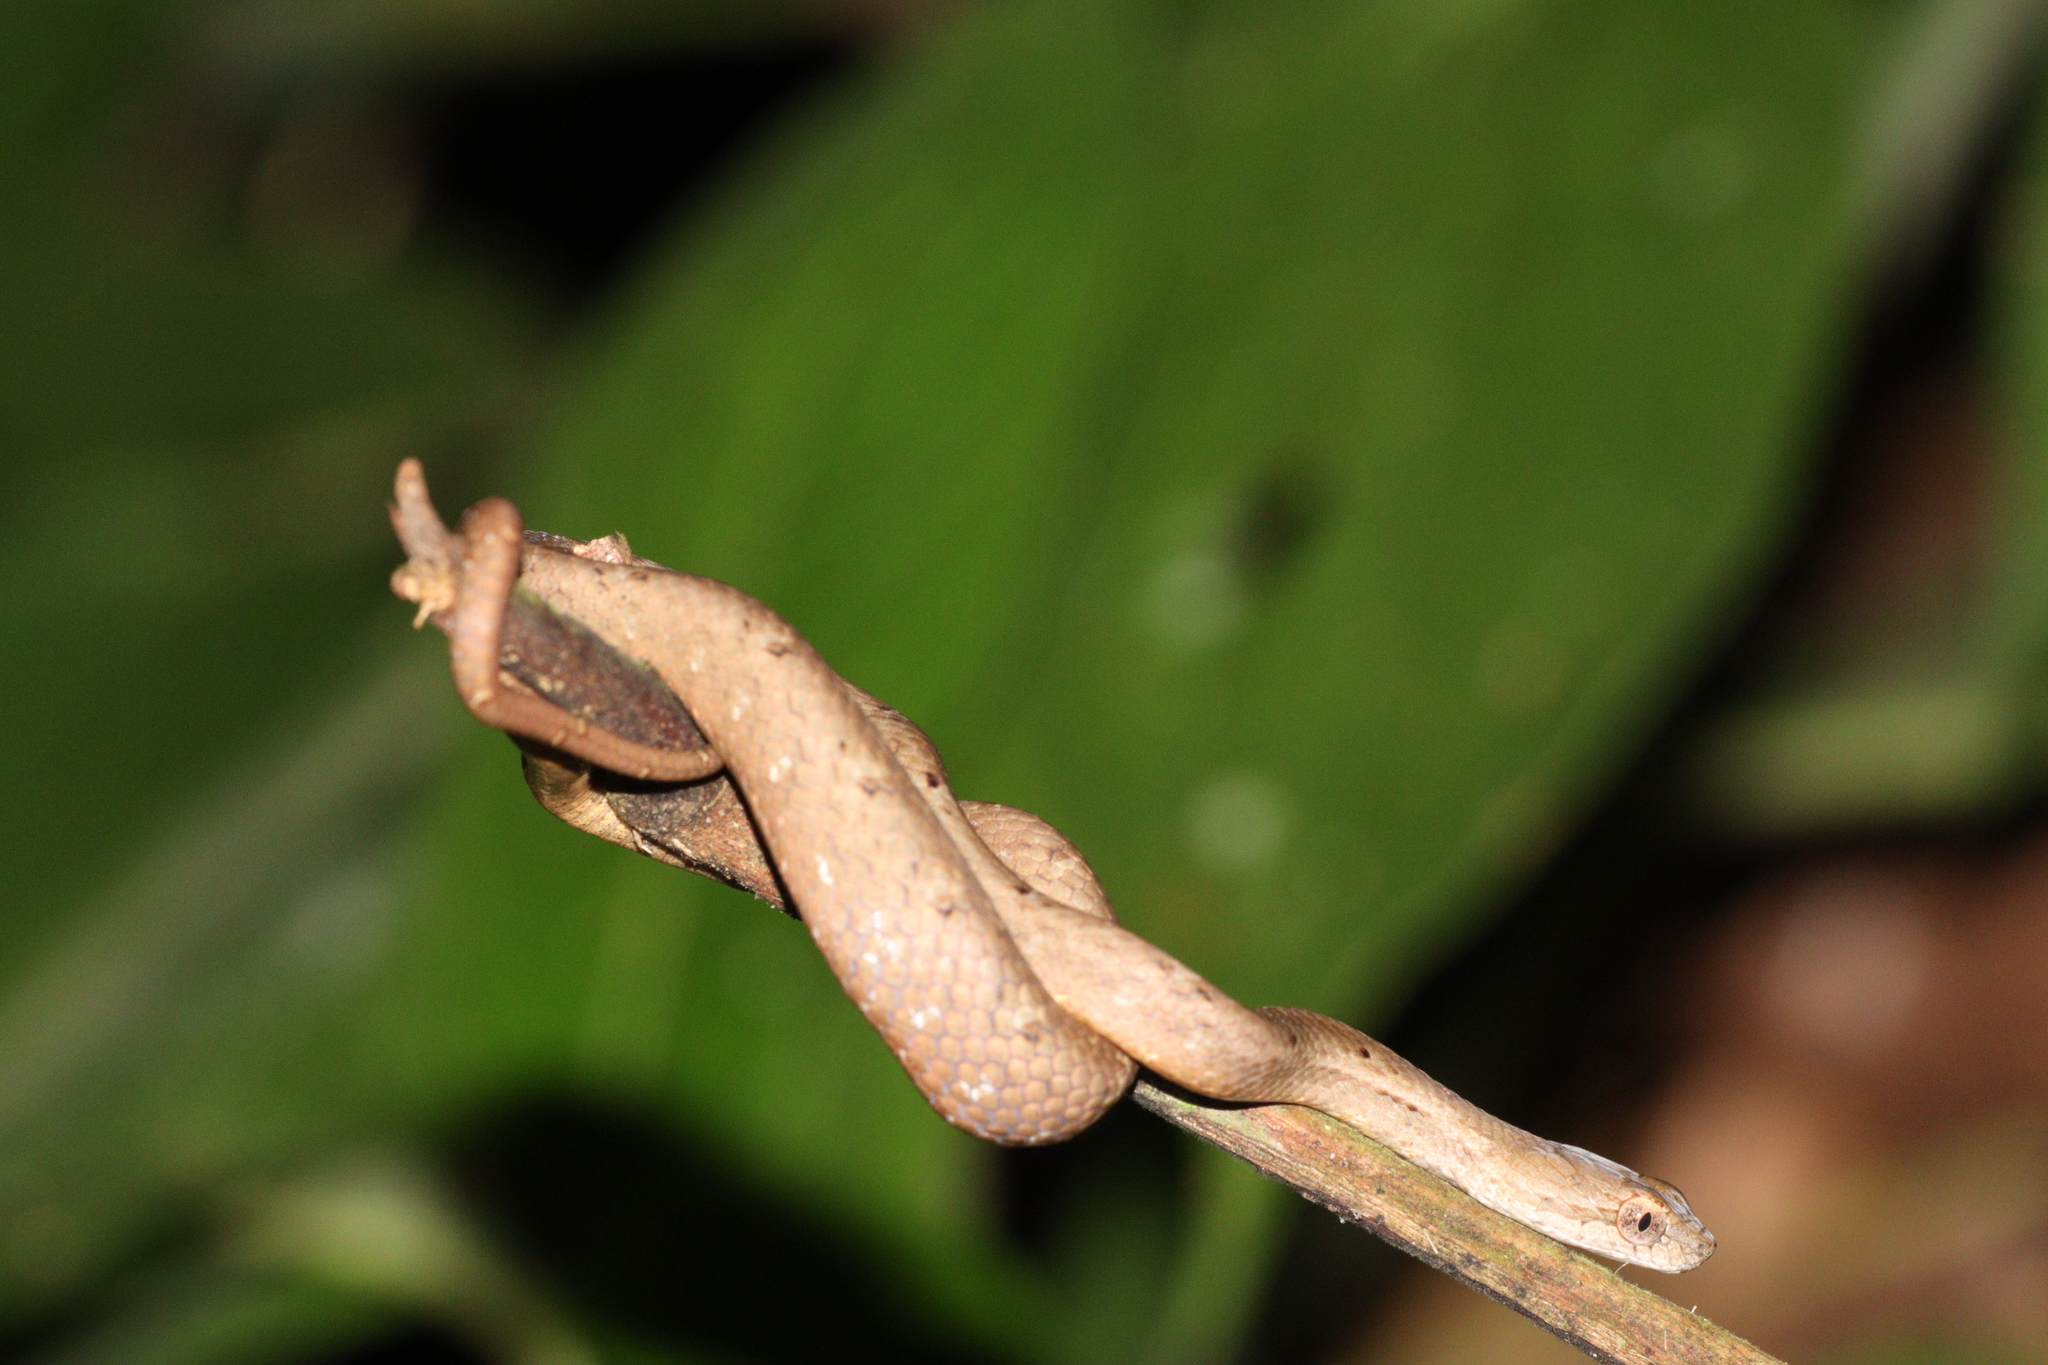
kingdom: Animalia
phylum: Chordata
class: Squamata
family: Pseudaspididae
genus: Psammodynastes
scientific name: Psammodynastes pulverulentus
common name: Common mock viper
